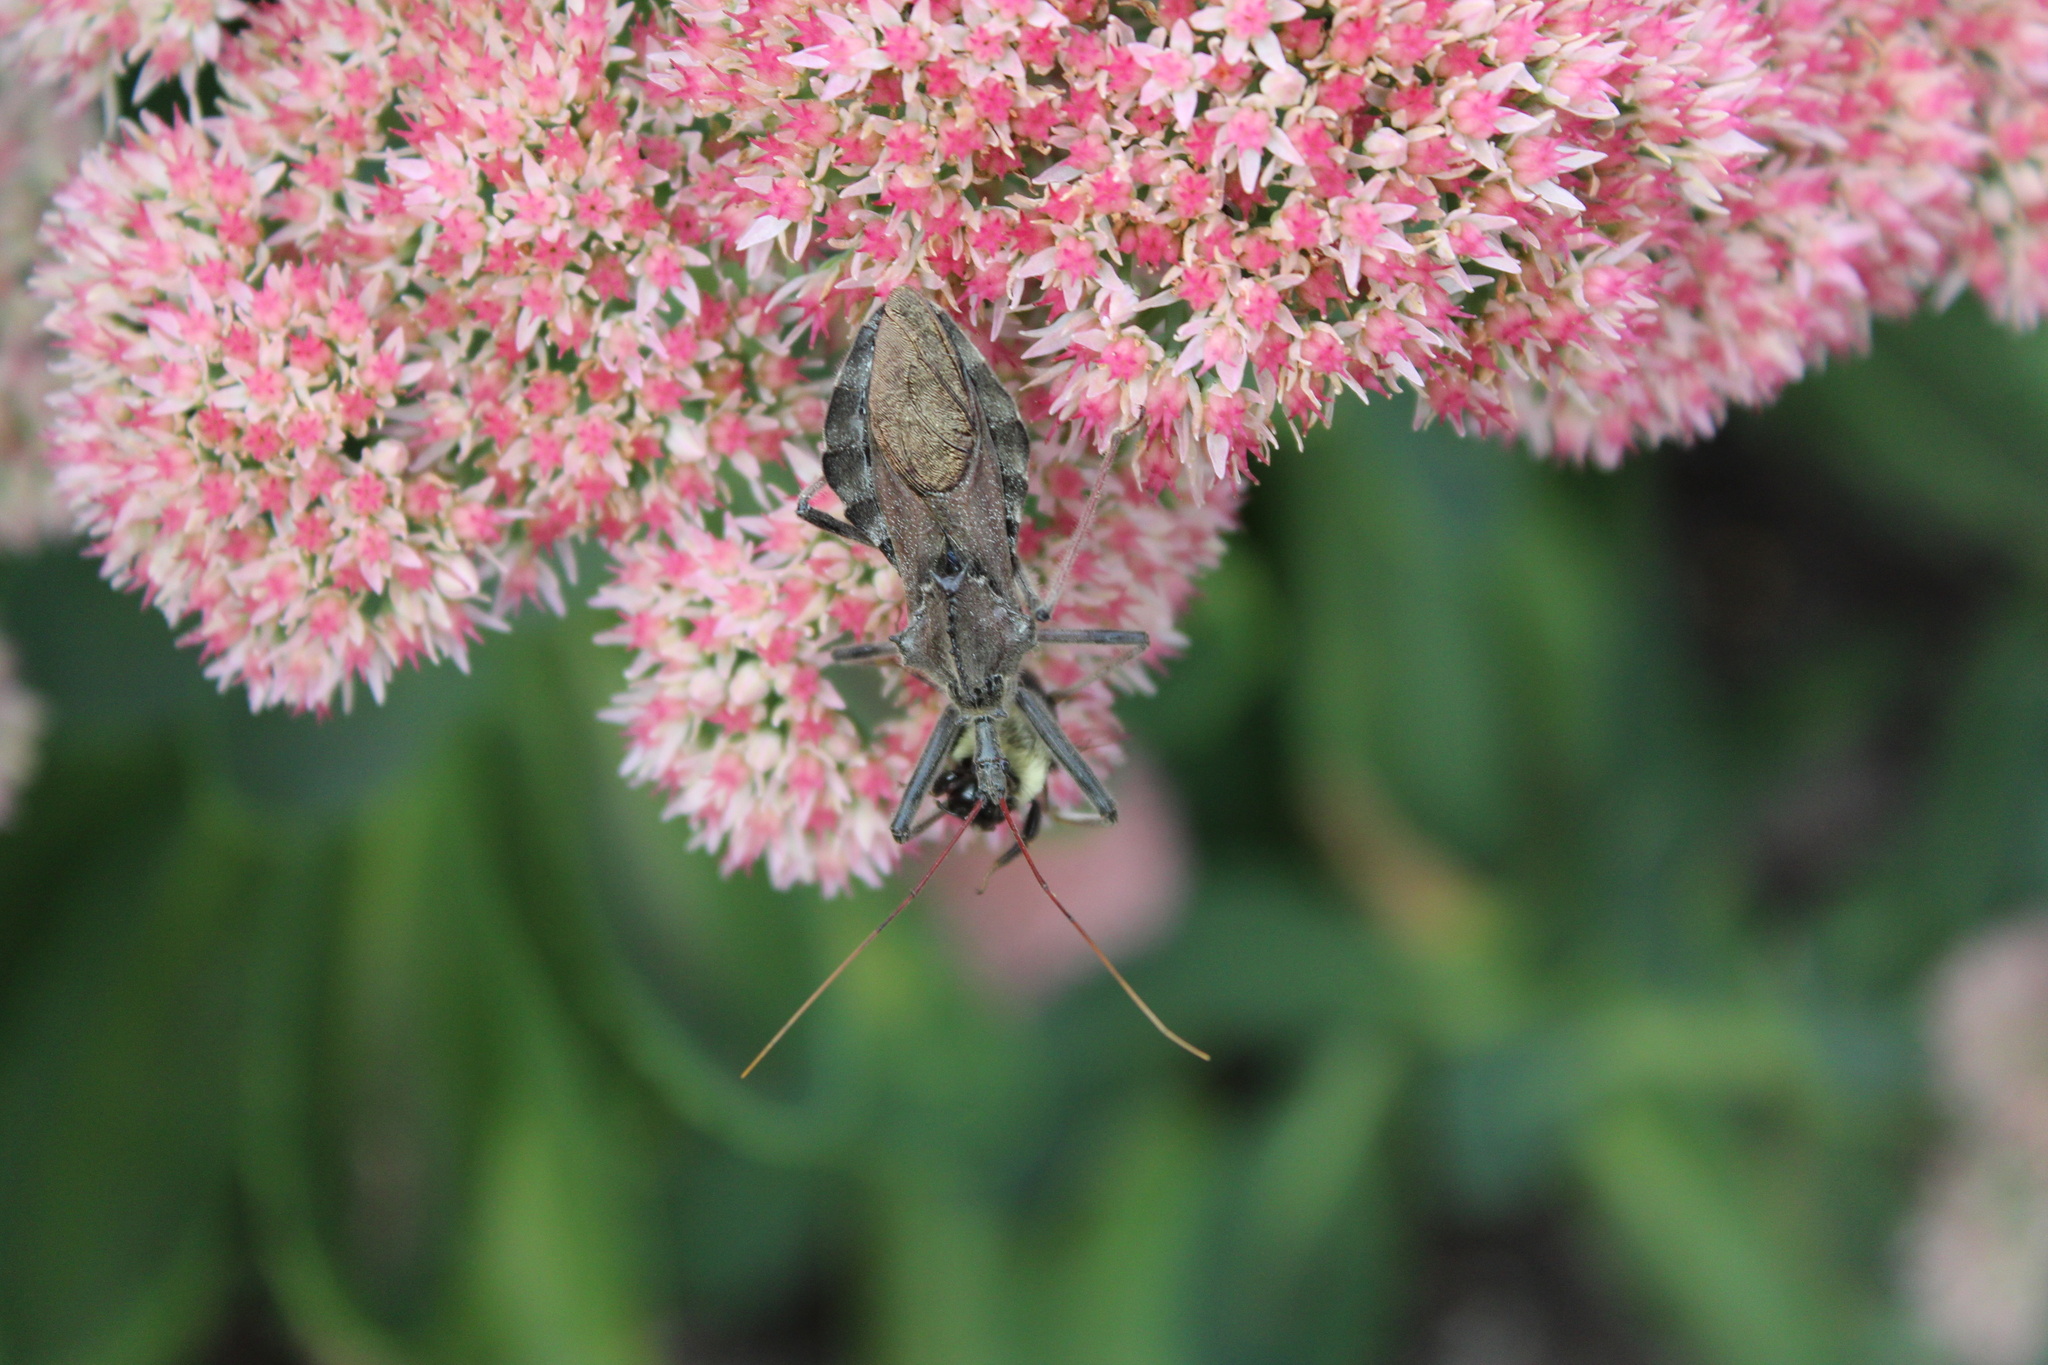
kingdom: Animalia
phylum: Arthropoda
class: Insecta
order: Hemiptera
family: Reduviidae
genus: Arilus
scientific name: Arilus cristatus
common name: North american wheel bug
